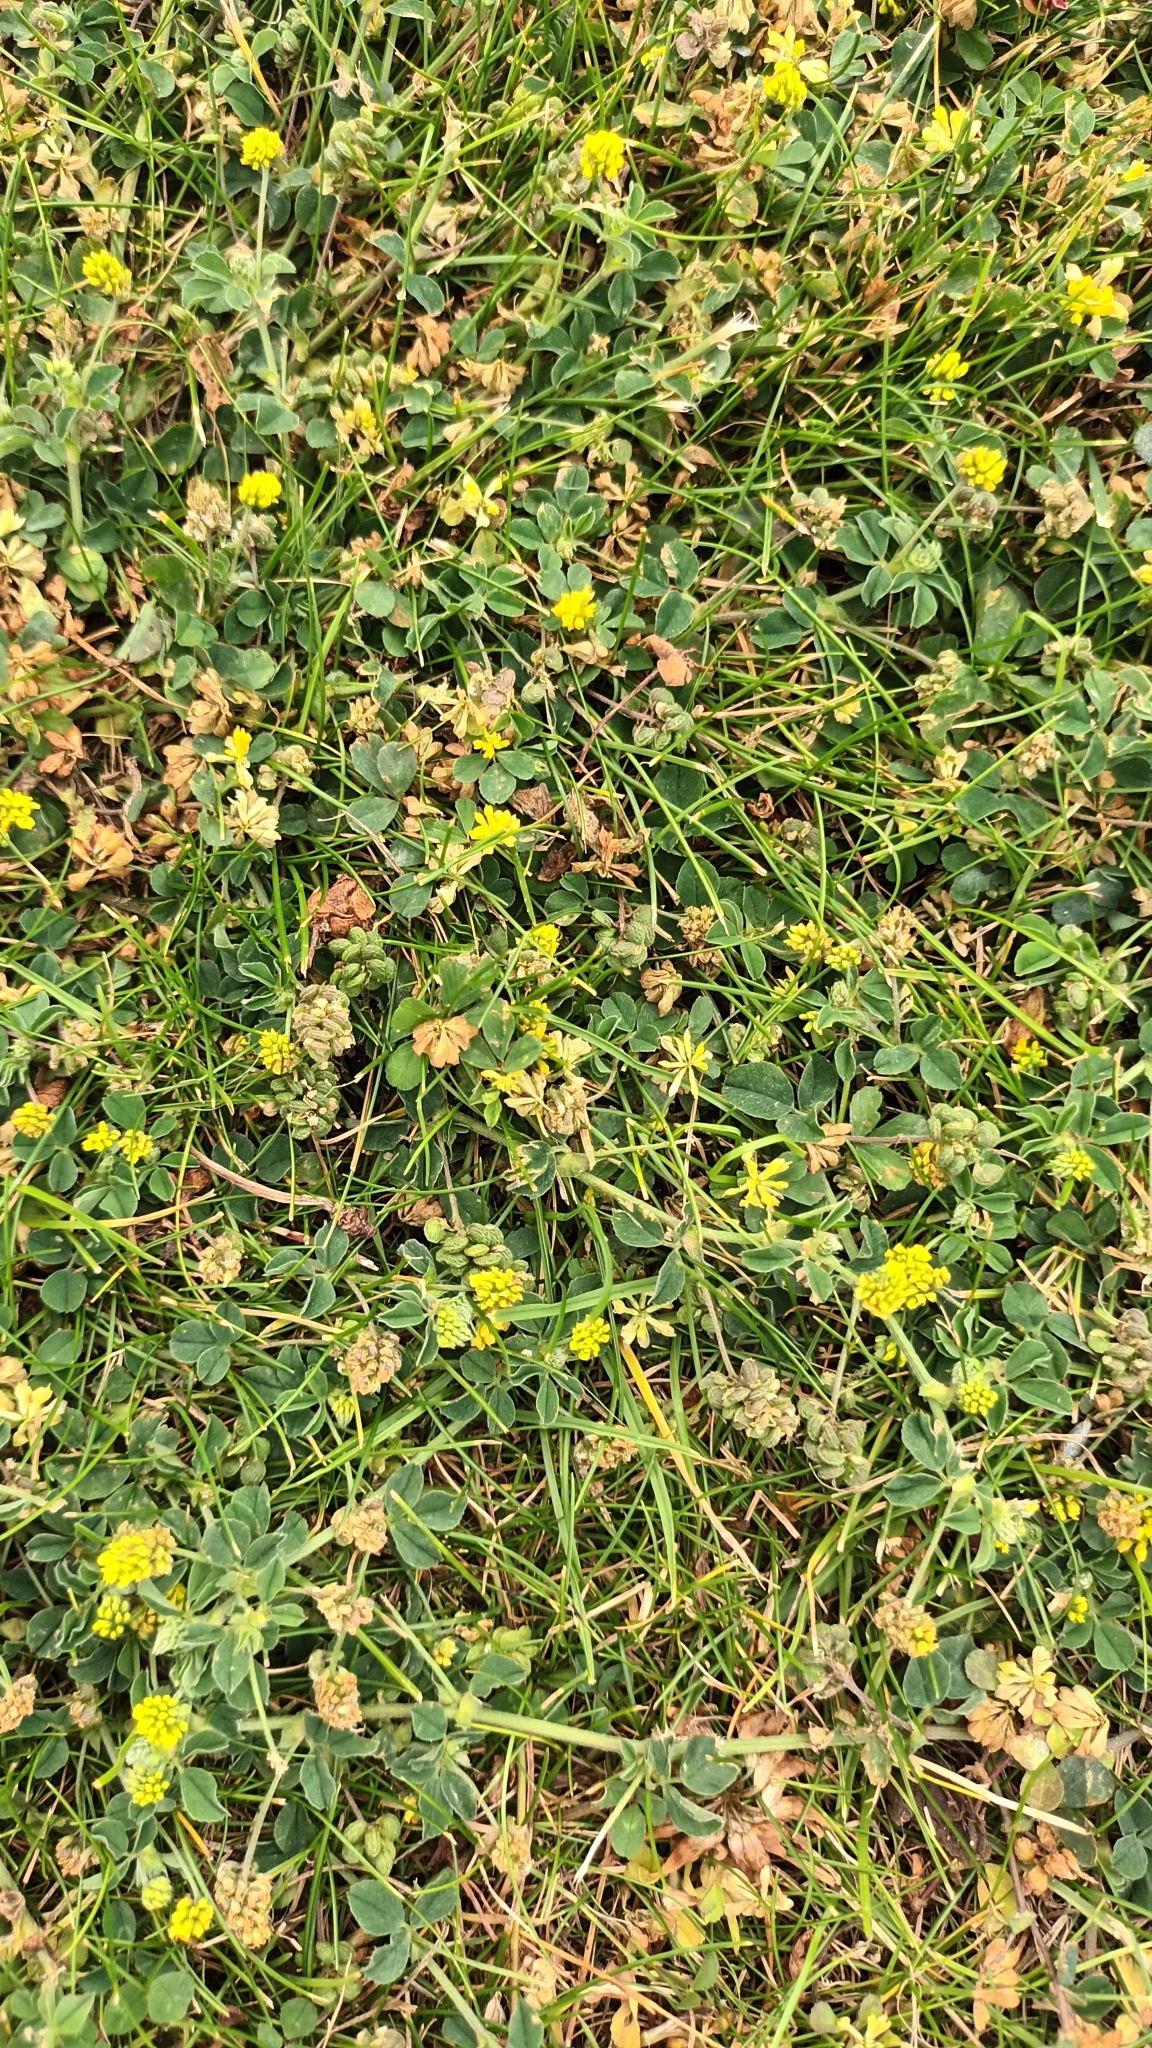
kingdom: Plantae
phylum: Tracheophyta
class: Magnoliopsida
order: Fabales
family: Fabaceae
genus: Medicago
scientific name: Medicago lupulina
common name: Black medick
